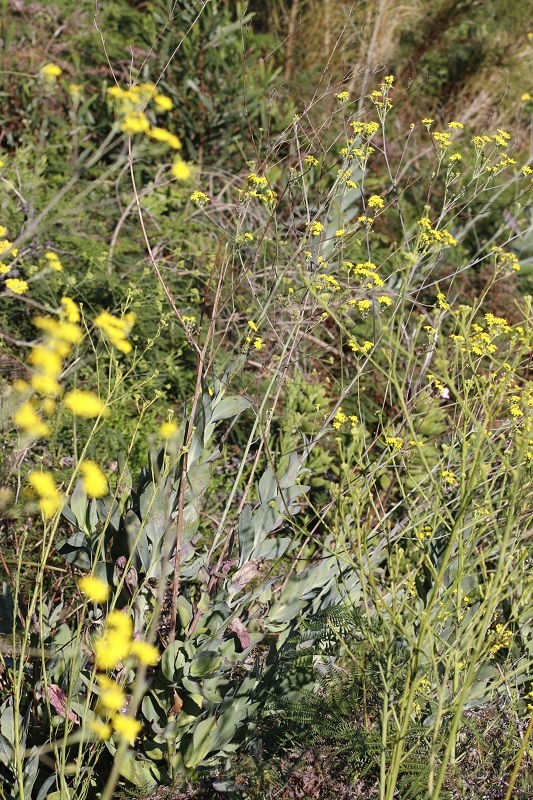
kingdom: Plantae
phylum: Tracheophyta
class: Magnoliopsida
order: Asterales
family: Asteraceae
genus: Othonna
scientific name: Othonna quinquedentata
